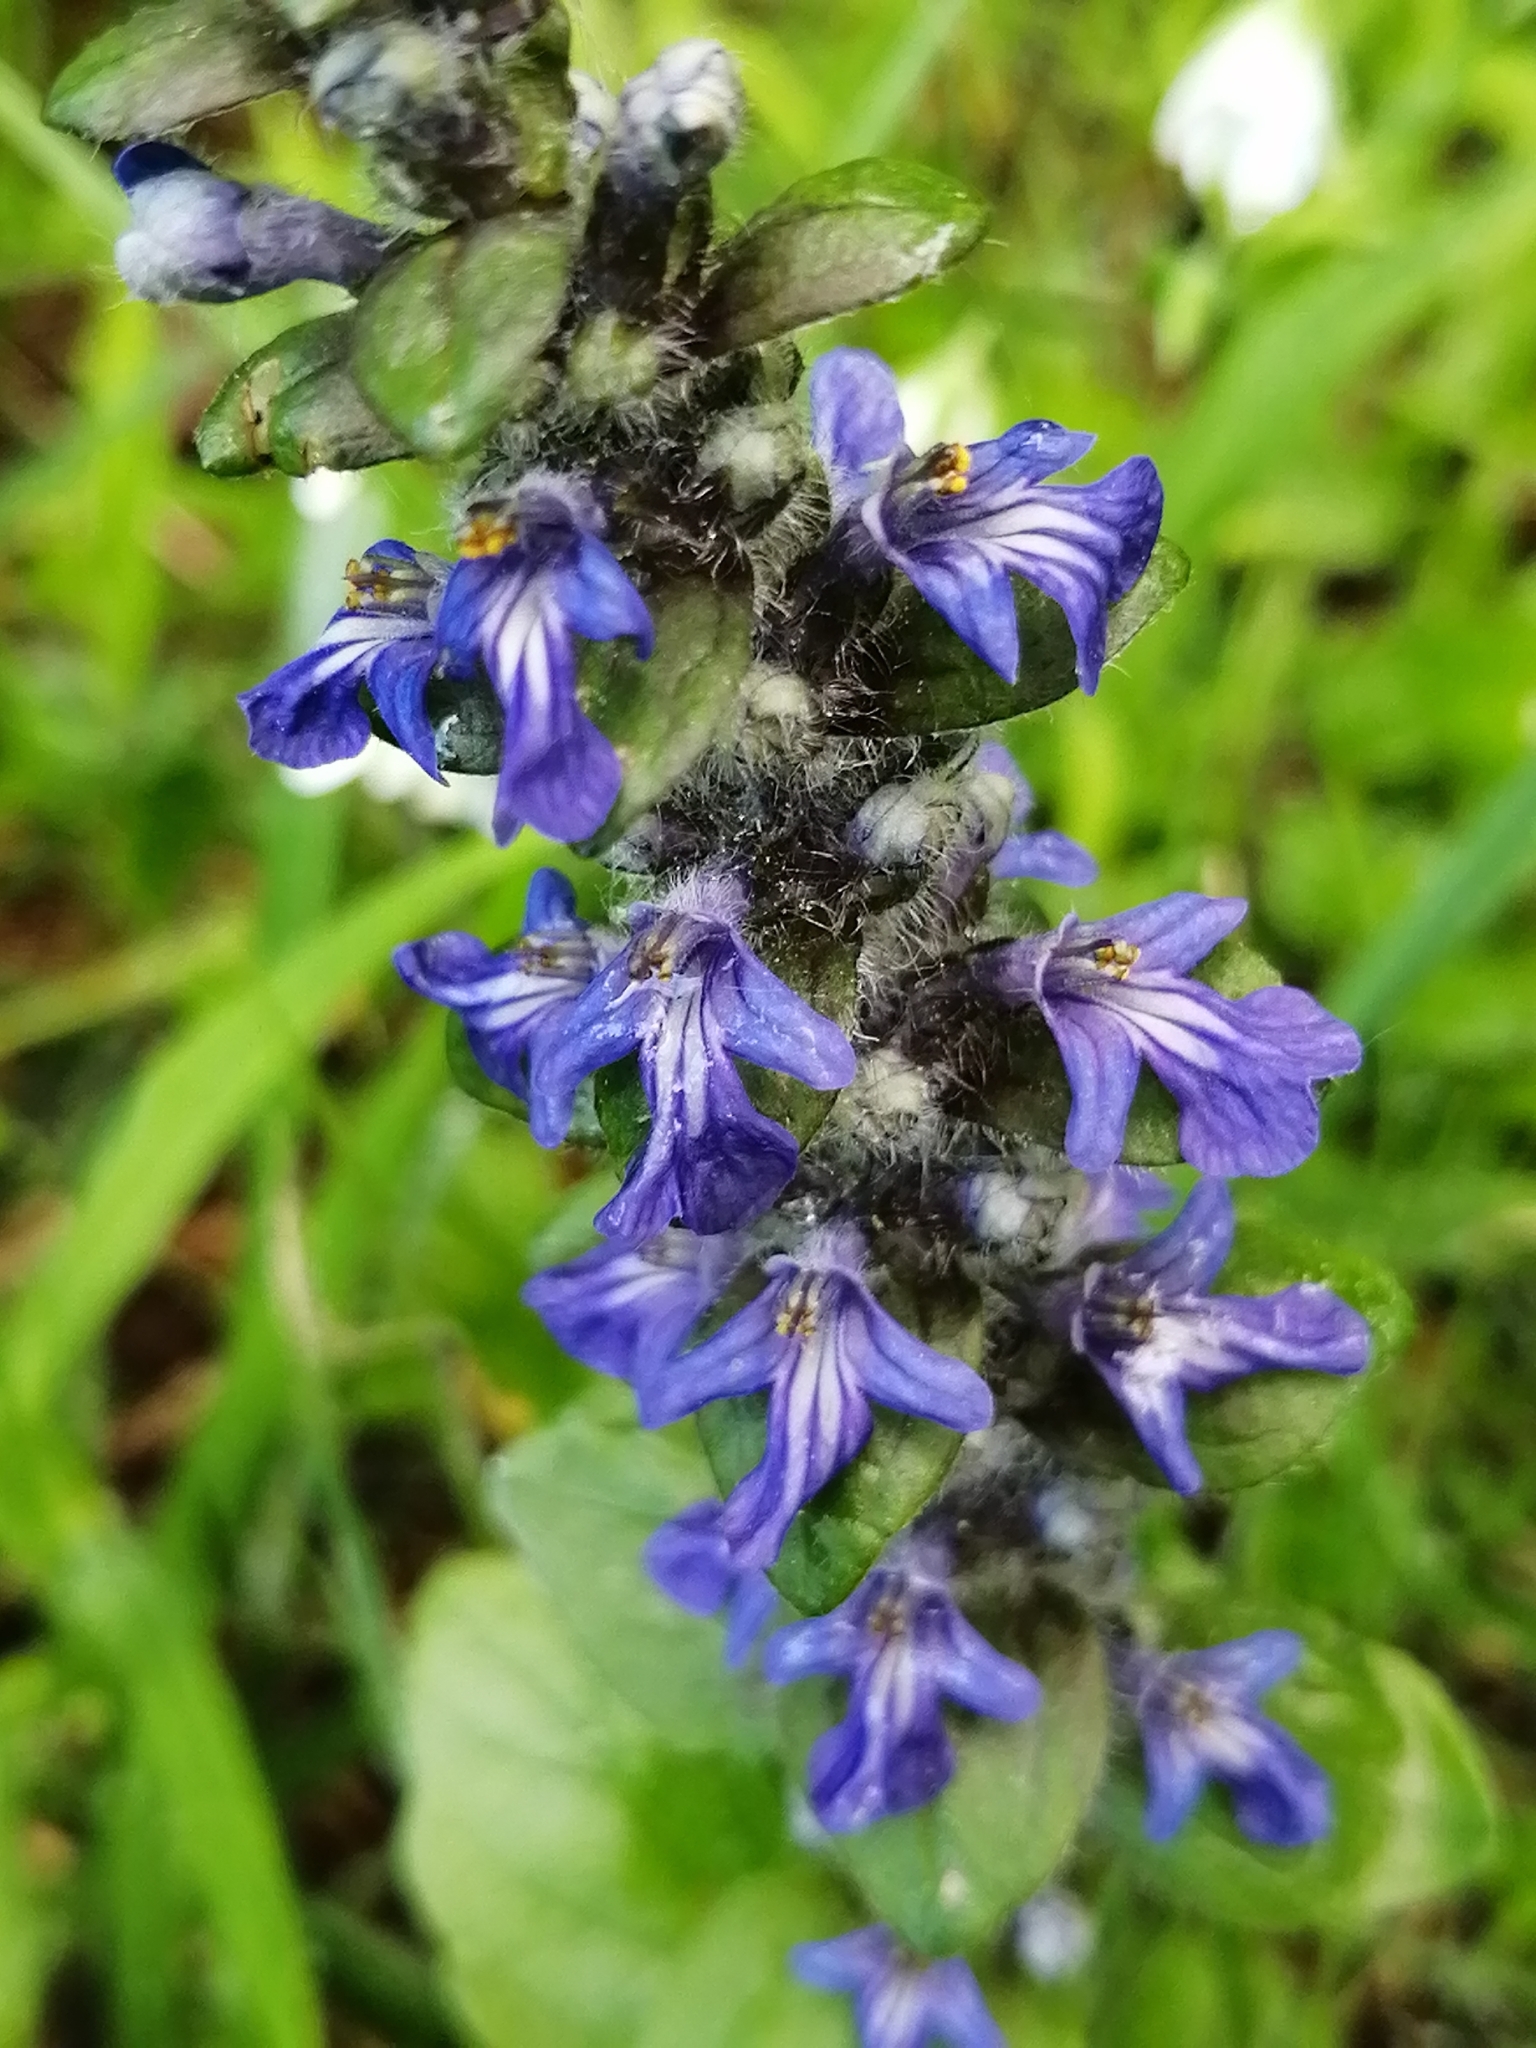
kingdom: Plantae
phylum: Tracheophyta
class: Magnoliopsida
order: Lamiales
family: Lamiaceae
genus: Ajuga
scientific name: Ajuga reptans
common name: Bugle
